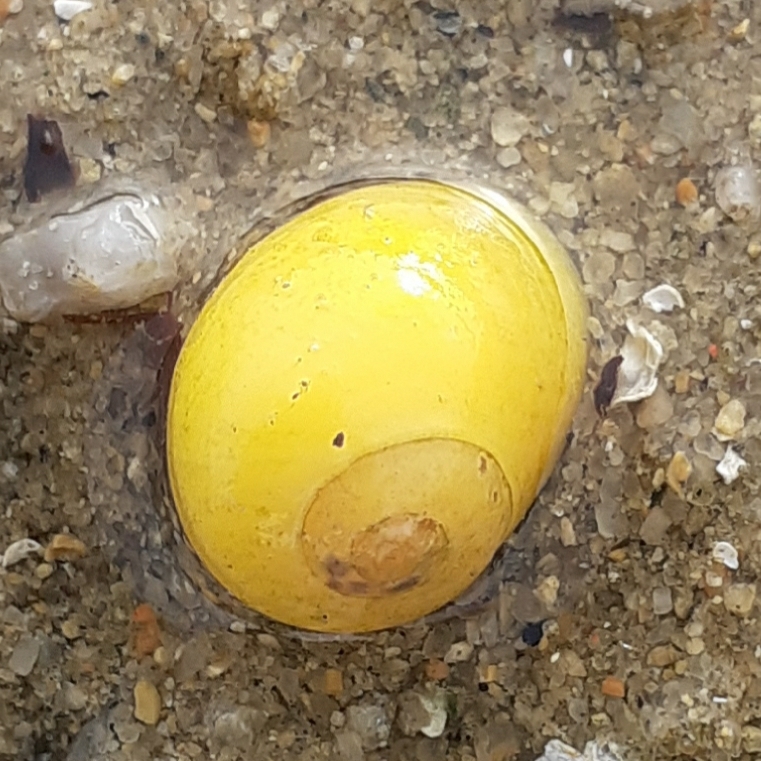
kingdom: Animalia
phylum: Mollusca
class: Gastropoda
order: Littorinimorpha
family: Littorinidae
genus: Littorina
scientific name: Littorina obtusata
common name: Flat periwinkle
